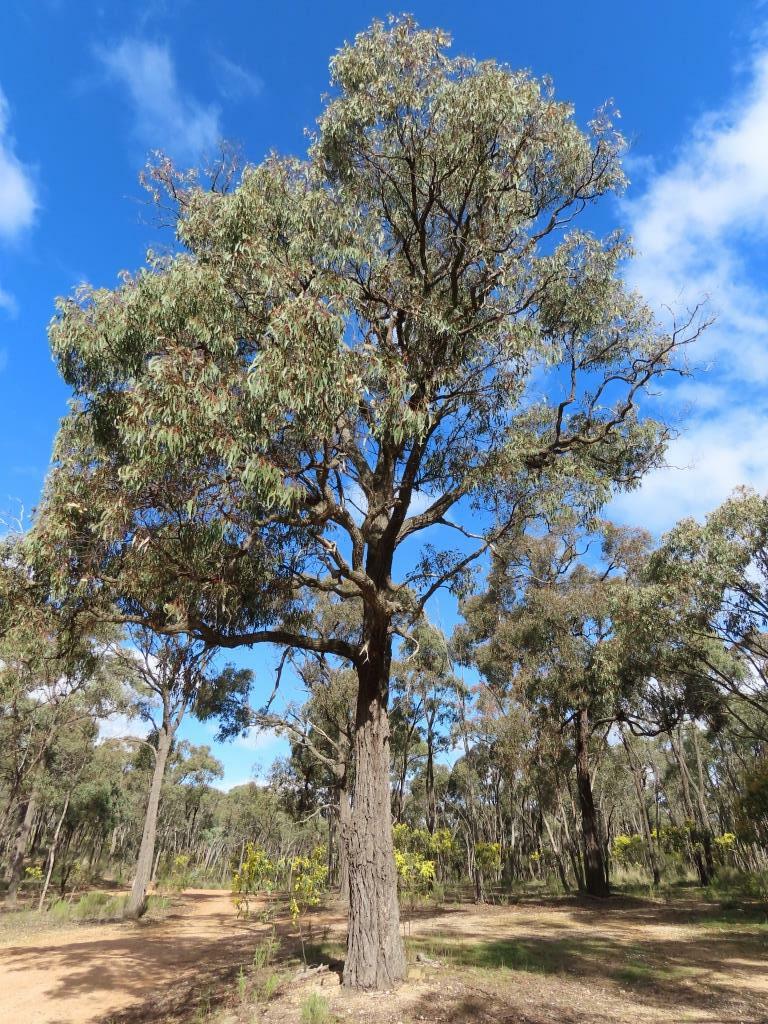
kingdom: Plantae
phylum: Tracheophyta
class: Magnoliopsida
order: Myrtales
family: Myrtaceae
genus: Eucalyptus
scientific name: Eucalyptus tricarpa
